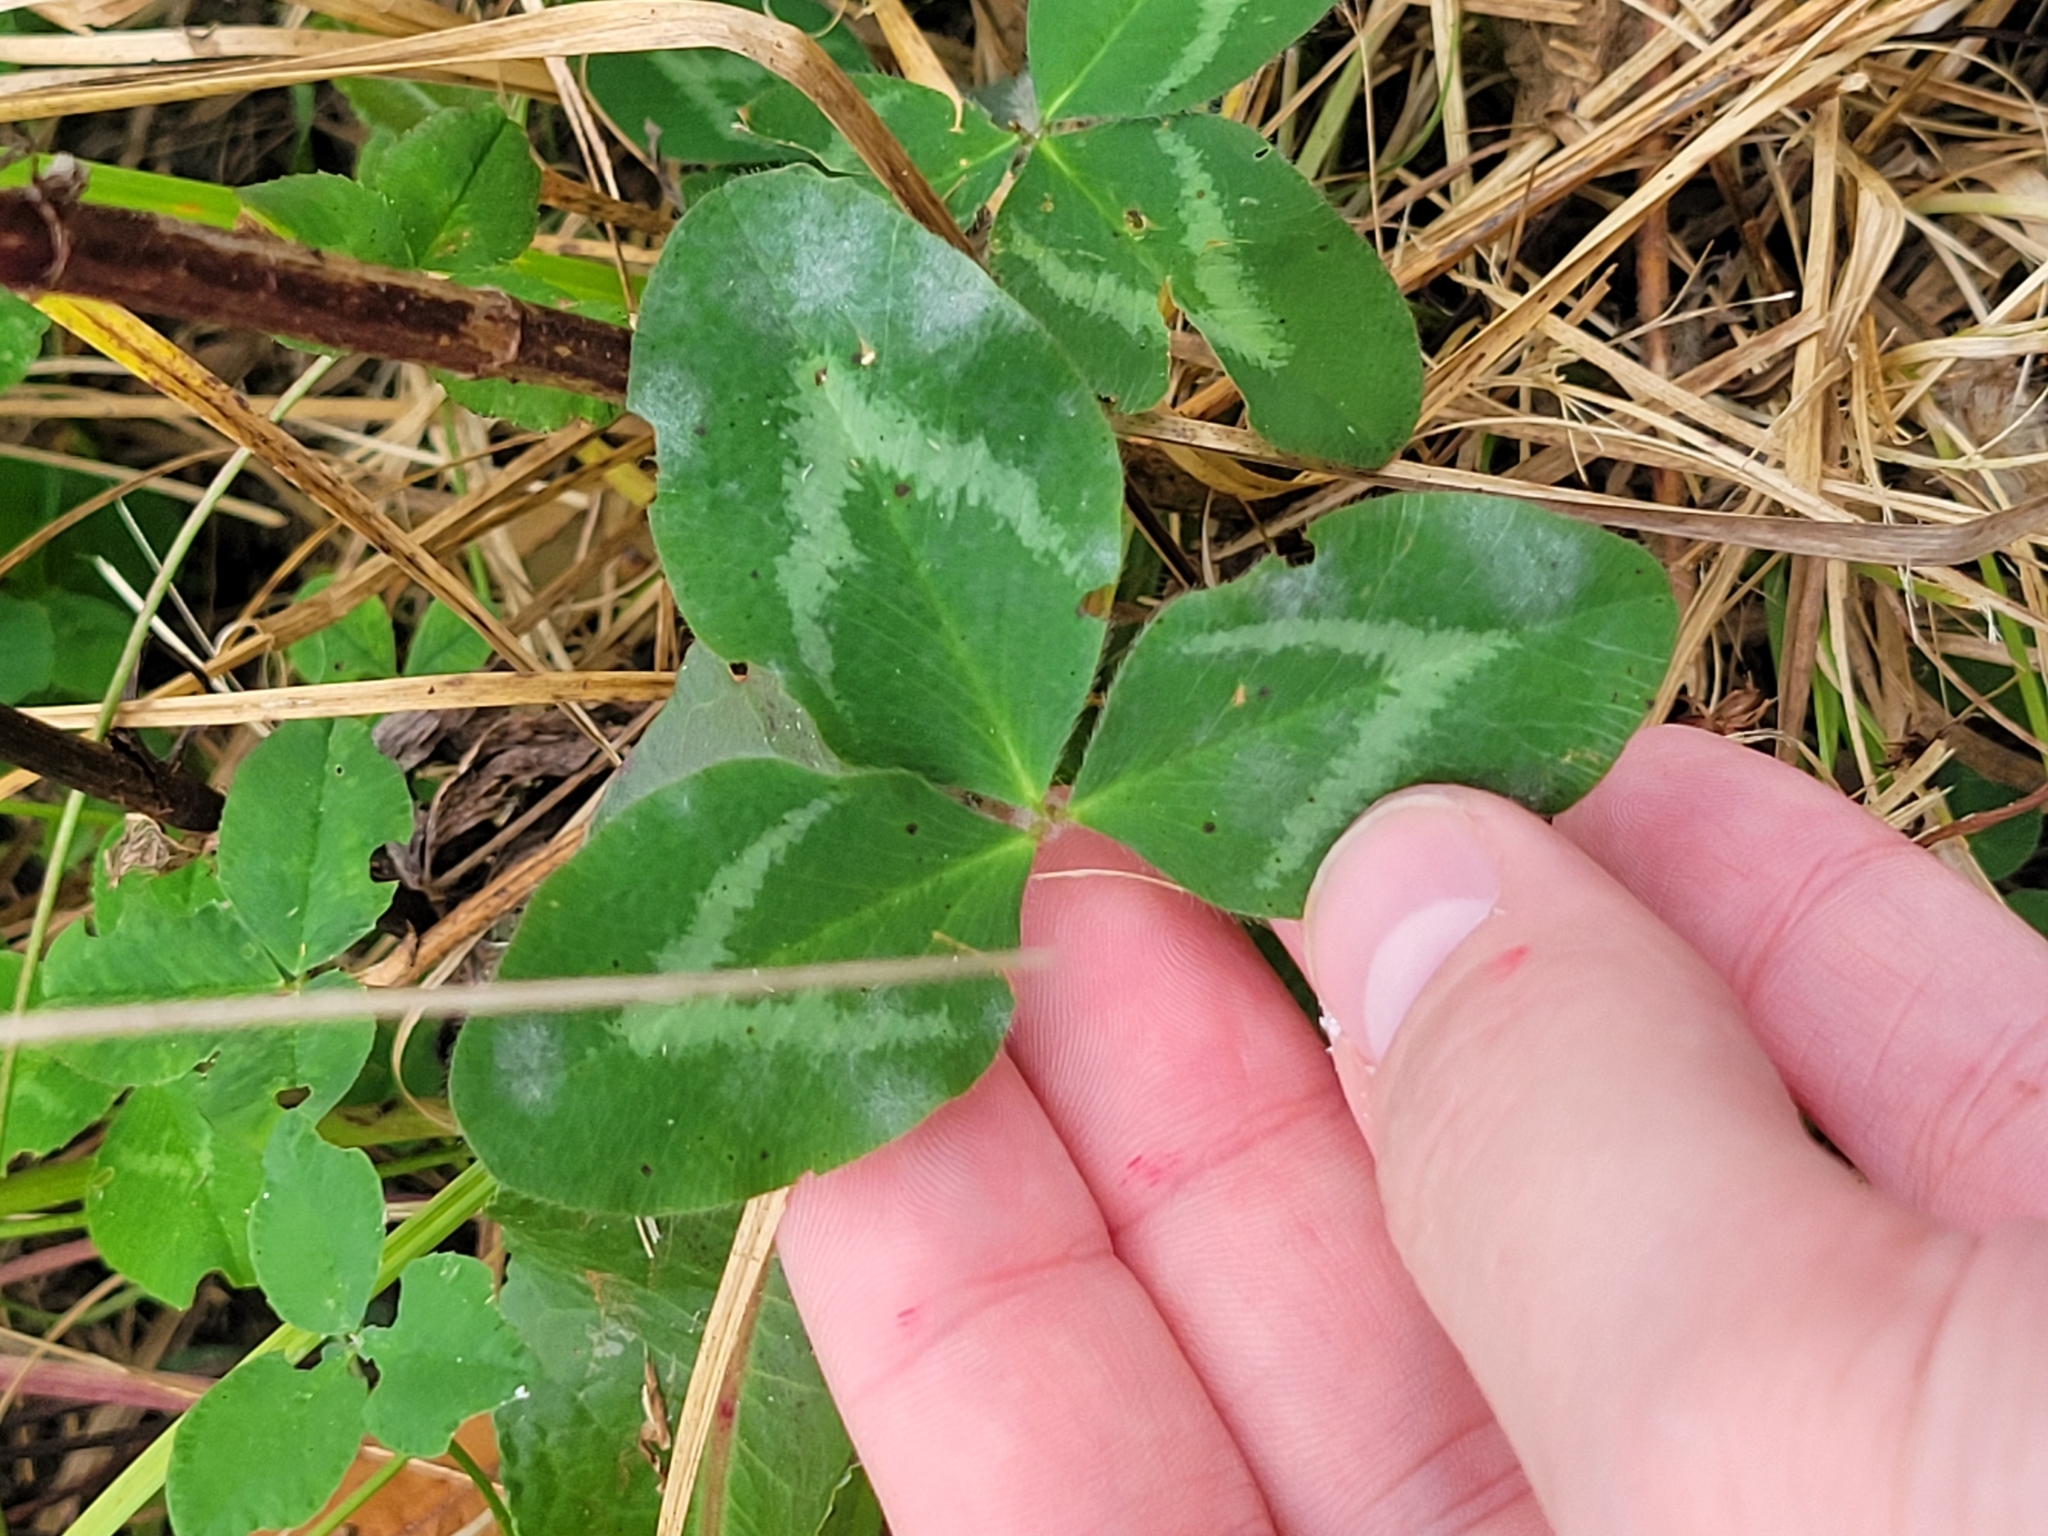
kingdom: Plantae
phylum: Tracheophyta
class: Magnoliopsida
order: Fabales
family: Fabaceae
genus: Trifolium
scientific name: Trifolium pratense
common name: Red clover
